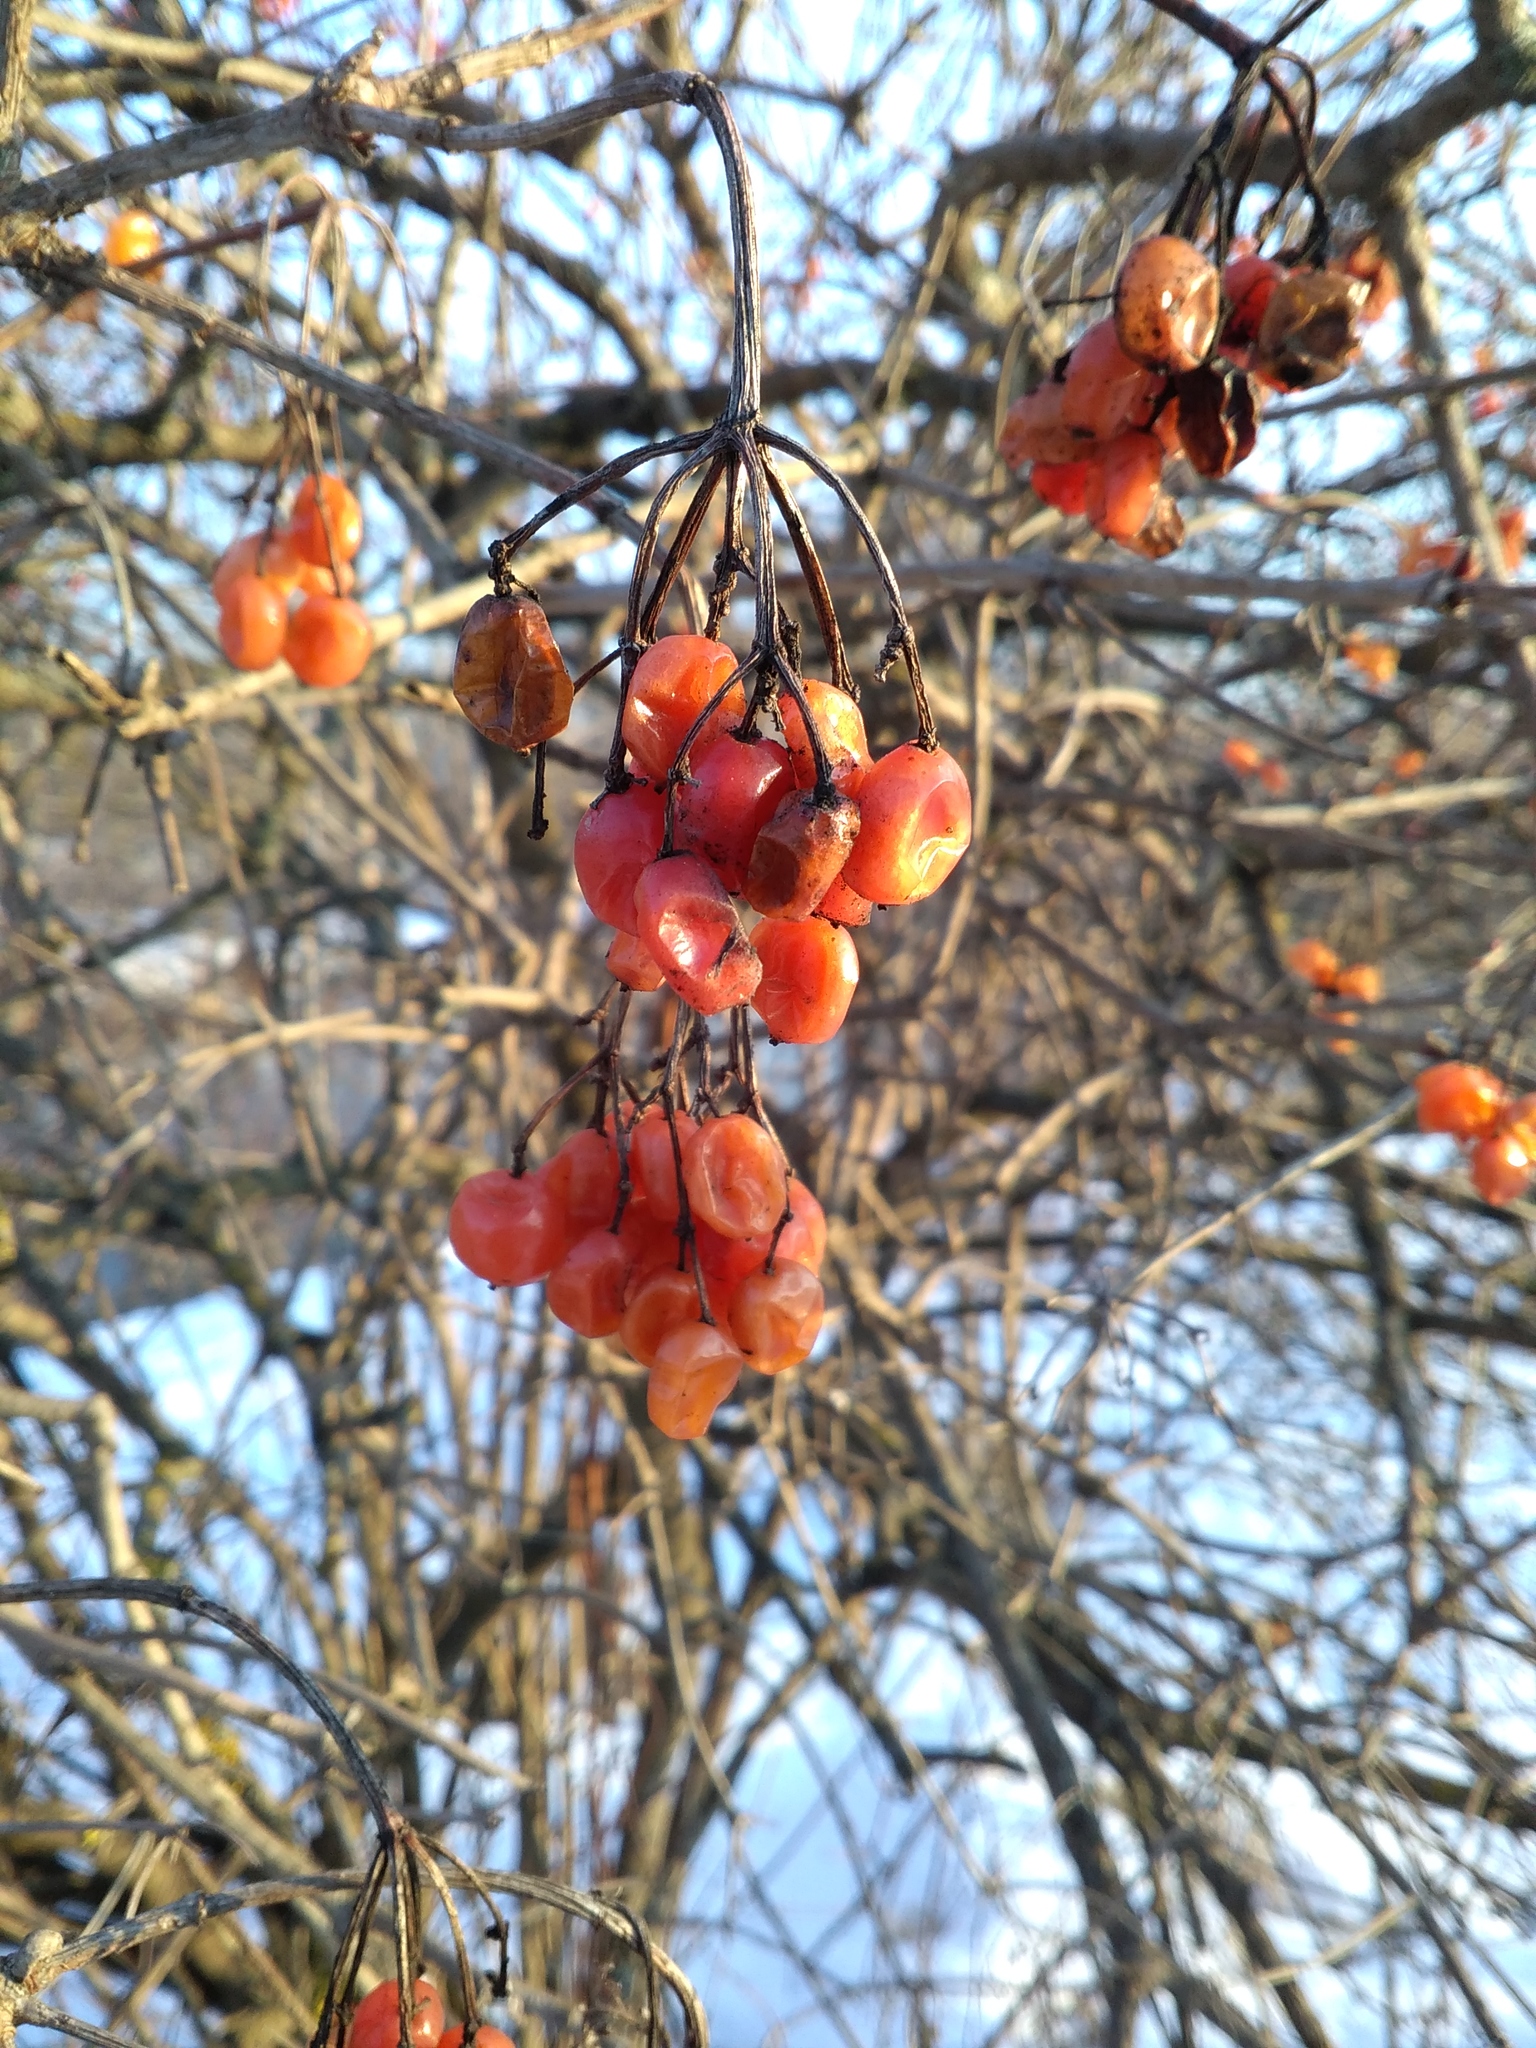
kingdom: Plantae
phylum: Tracheophyta
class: Magnoliopsida
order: Dipsacales
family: Viburnaceae
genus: Viburnum
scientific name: Viburnum opulus
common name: Guelder-rose
